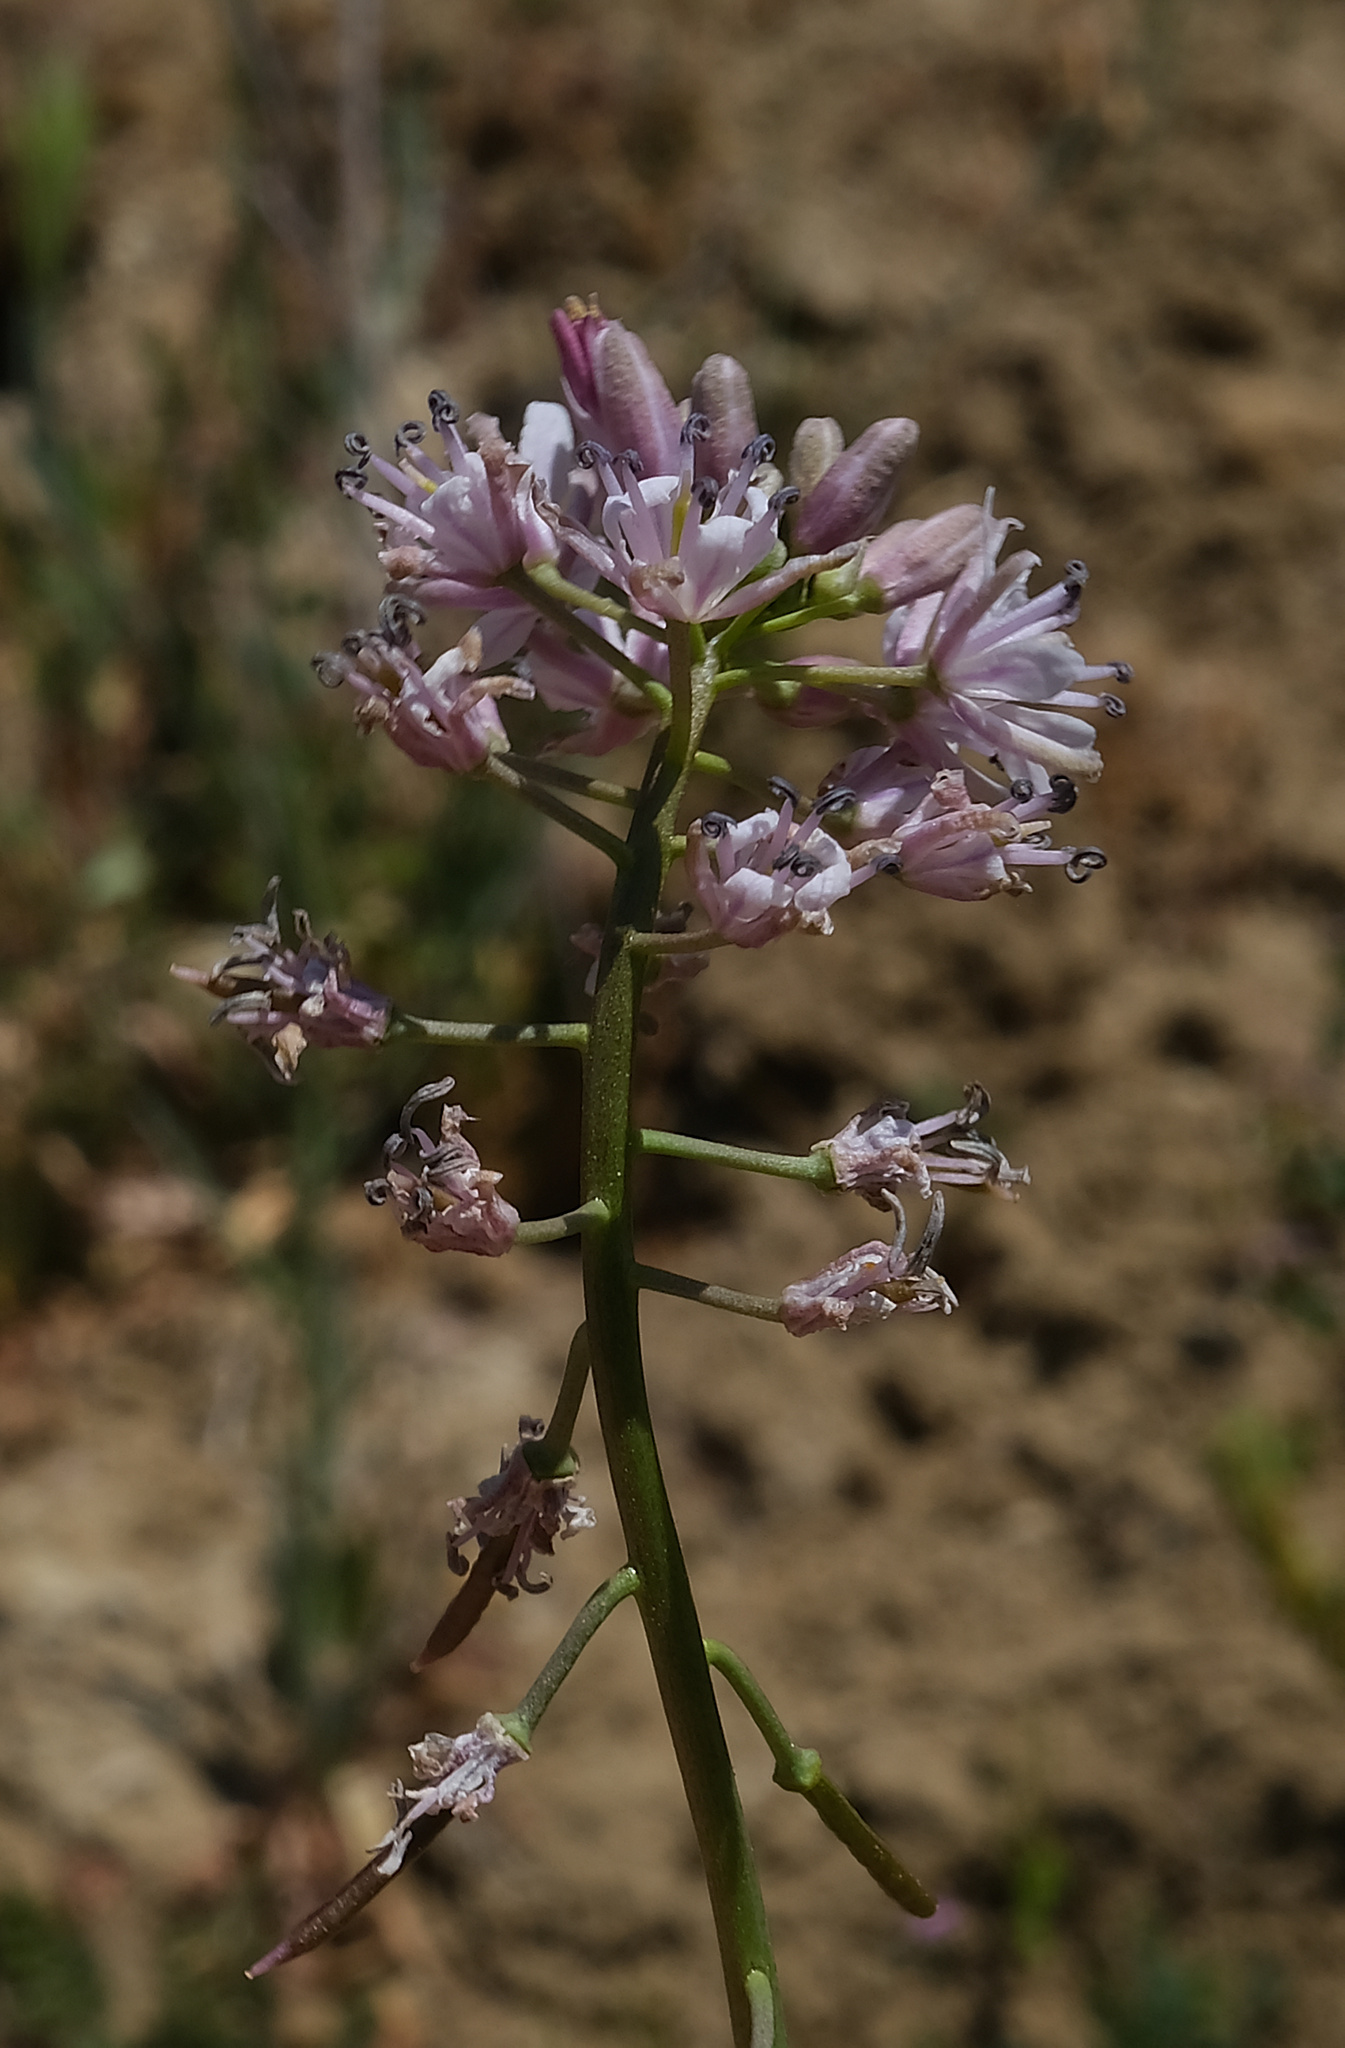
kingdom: Plantae
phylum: Tracheophyta
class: Magnoliopsida
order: Brassicales
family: Brassicaceae
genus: Streptanthus
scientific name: Streptanthus anceps
